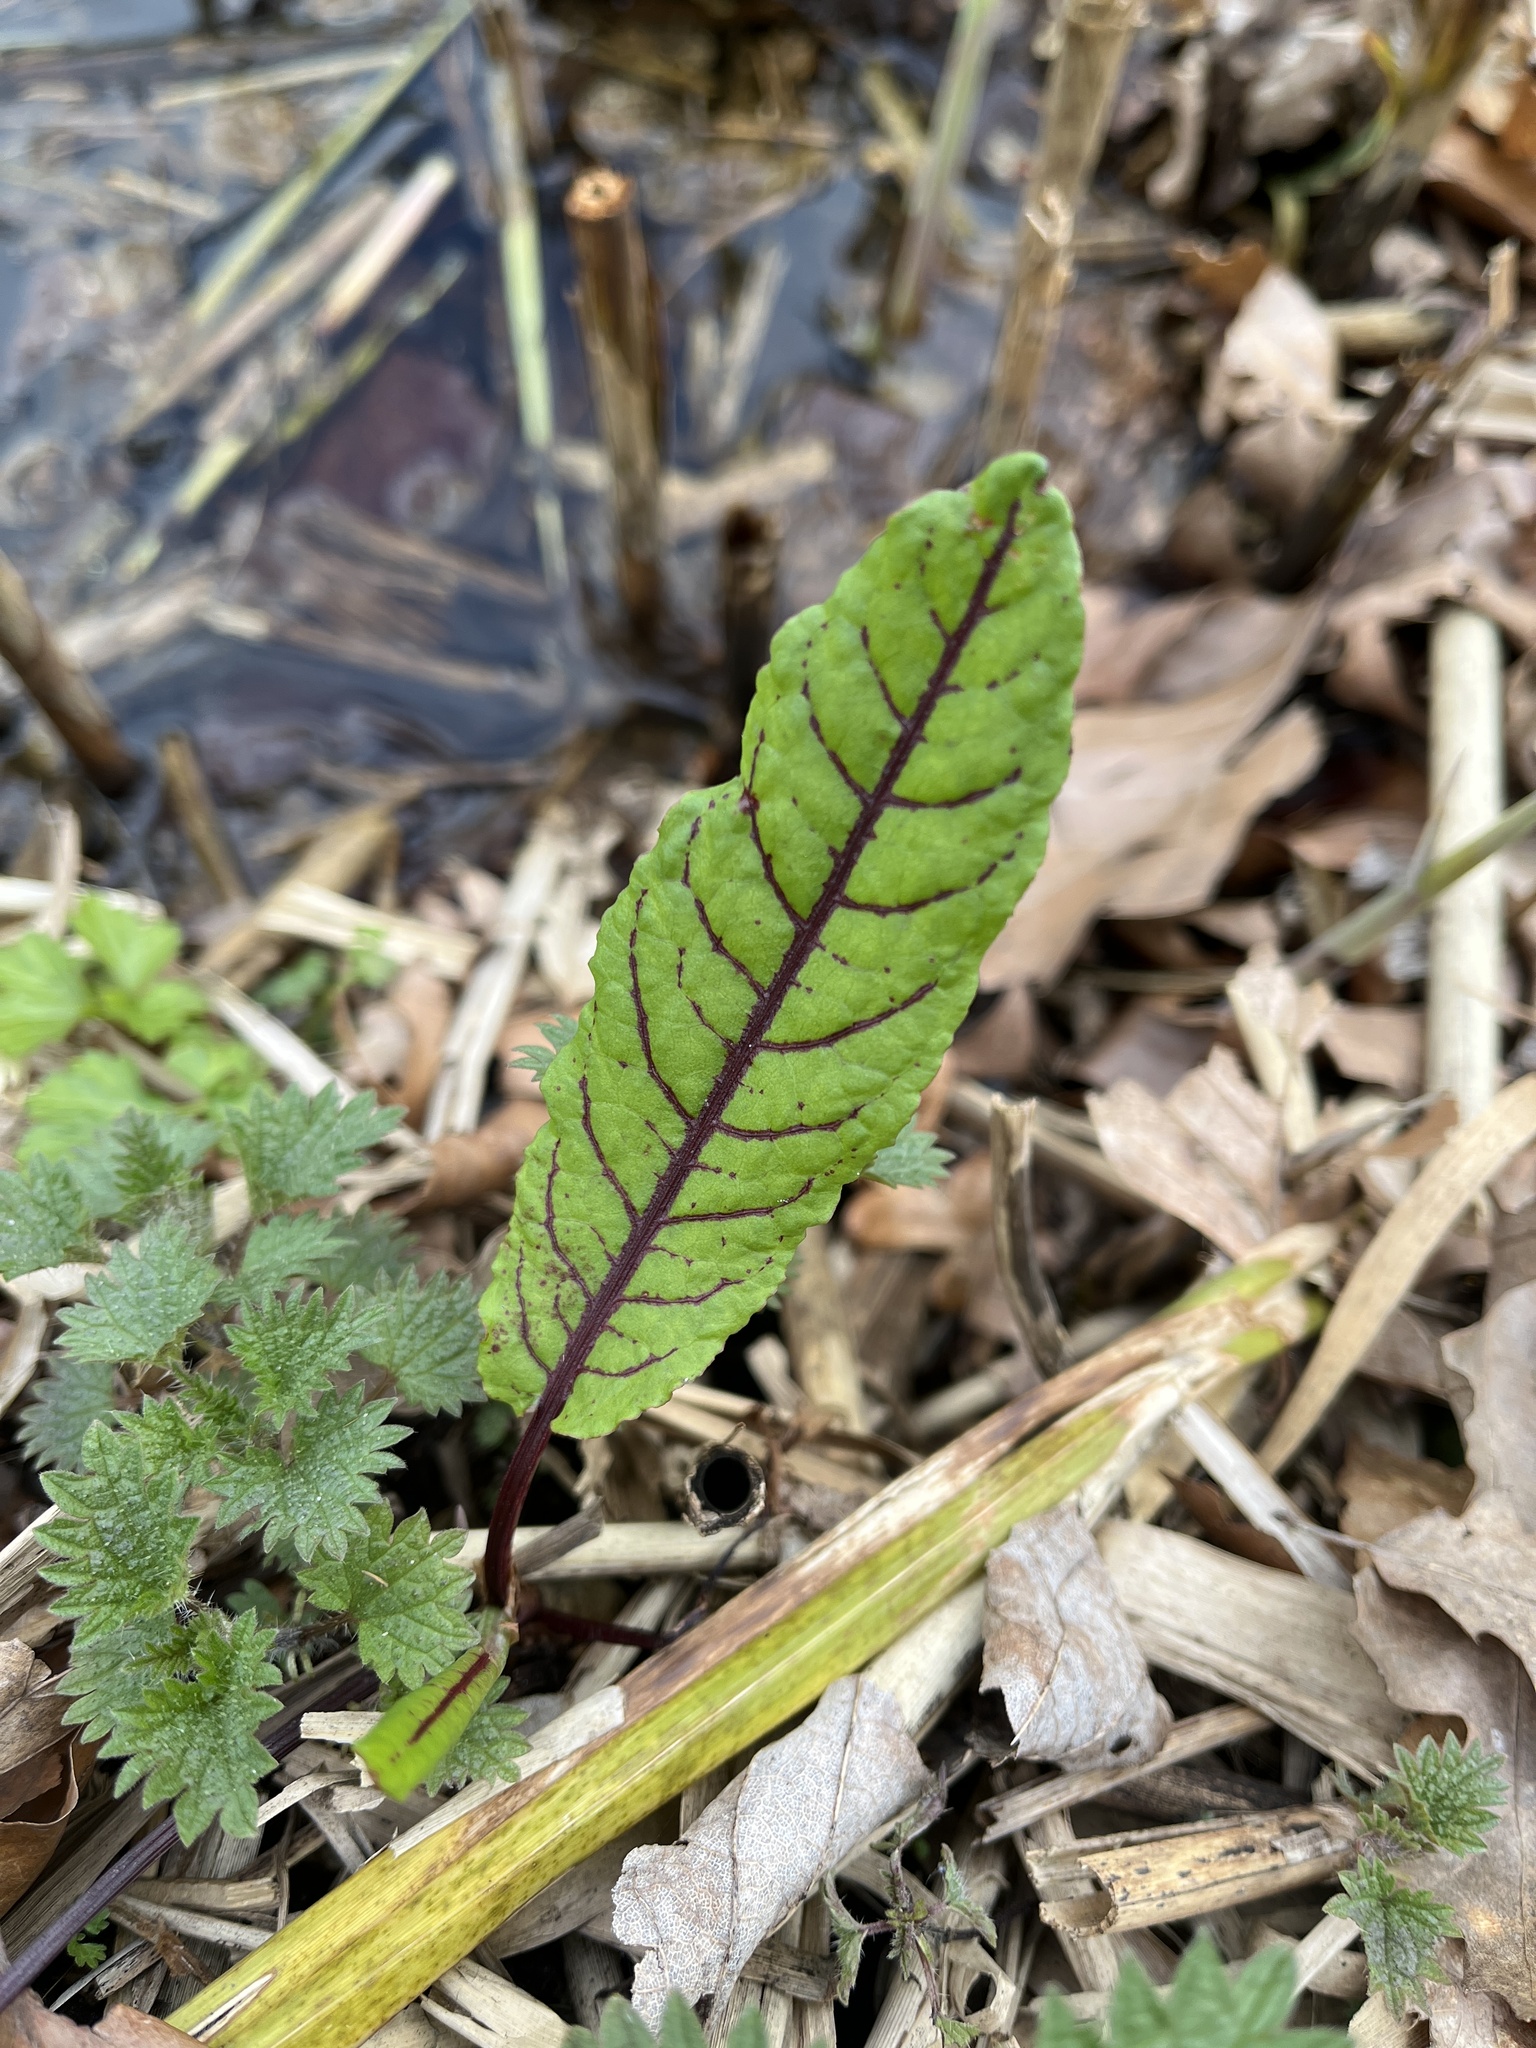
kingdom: Plantae
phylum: Tracheophyta
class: Magnoliopsida
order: Caryophyllales
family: Polygonaceae
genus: Rumex
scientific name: Rumex sanguineus
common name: Wood dock
